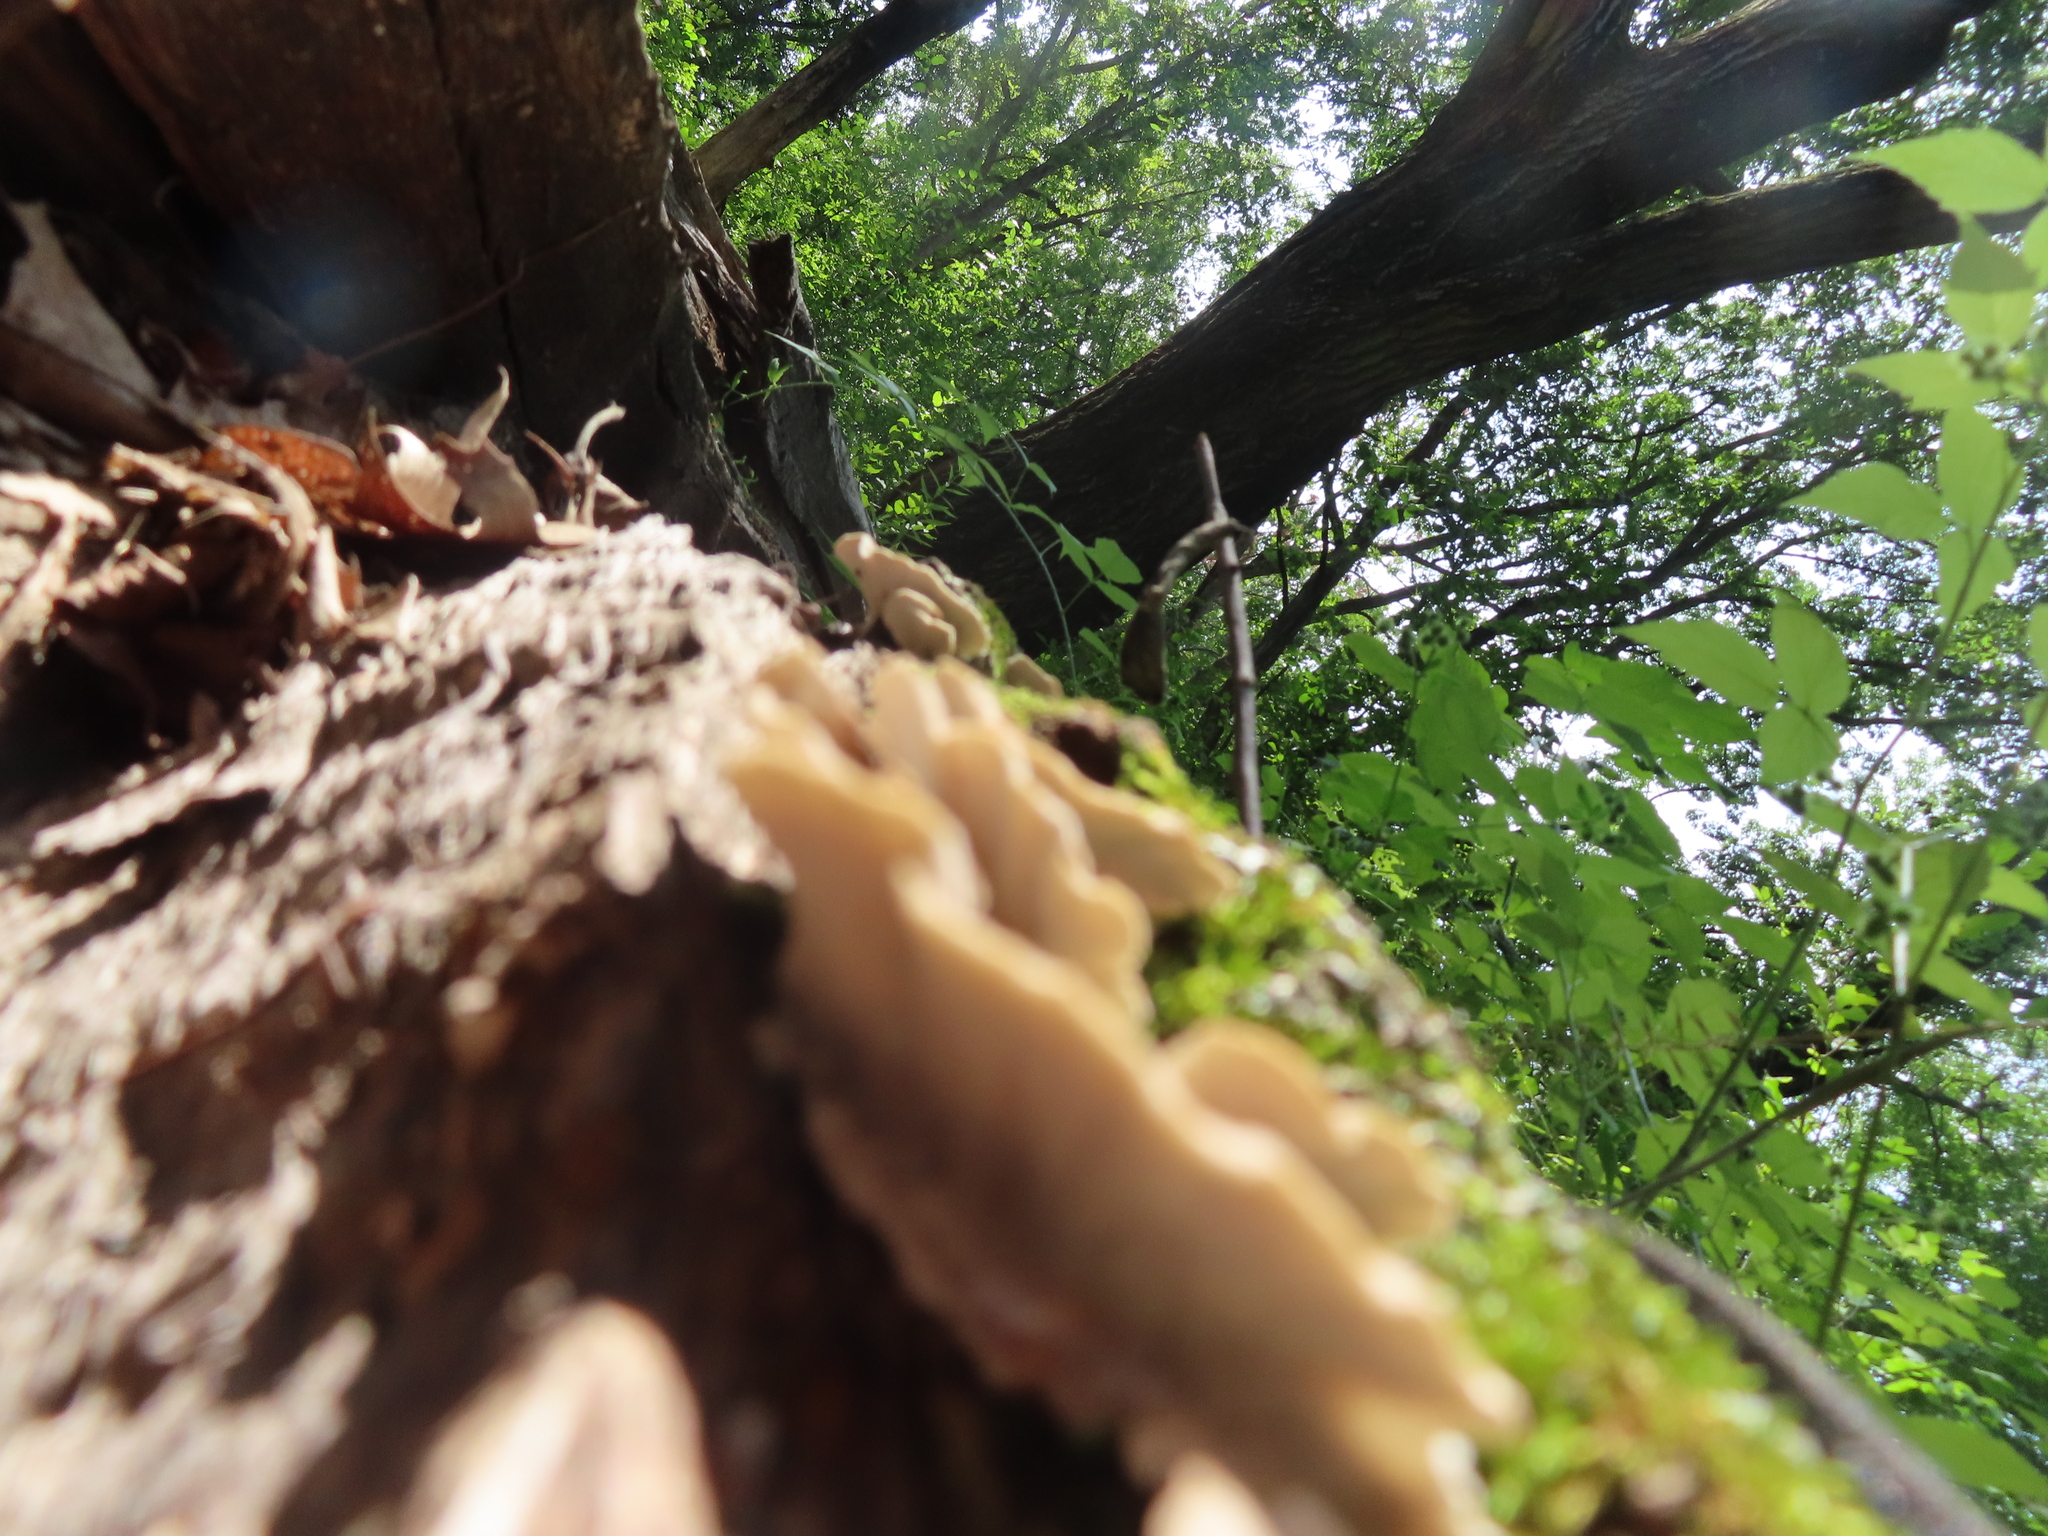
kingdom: Fungi
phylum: Basidiomycota
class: Agaricomycetes
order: Polyporales
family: Polyporaceae
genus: Trametes
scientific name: Trametes versicolor
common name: Turkeytail
